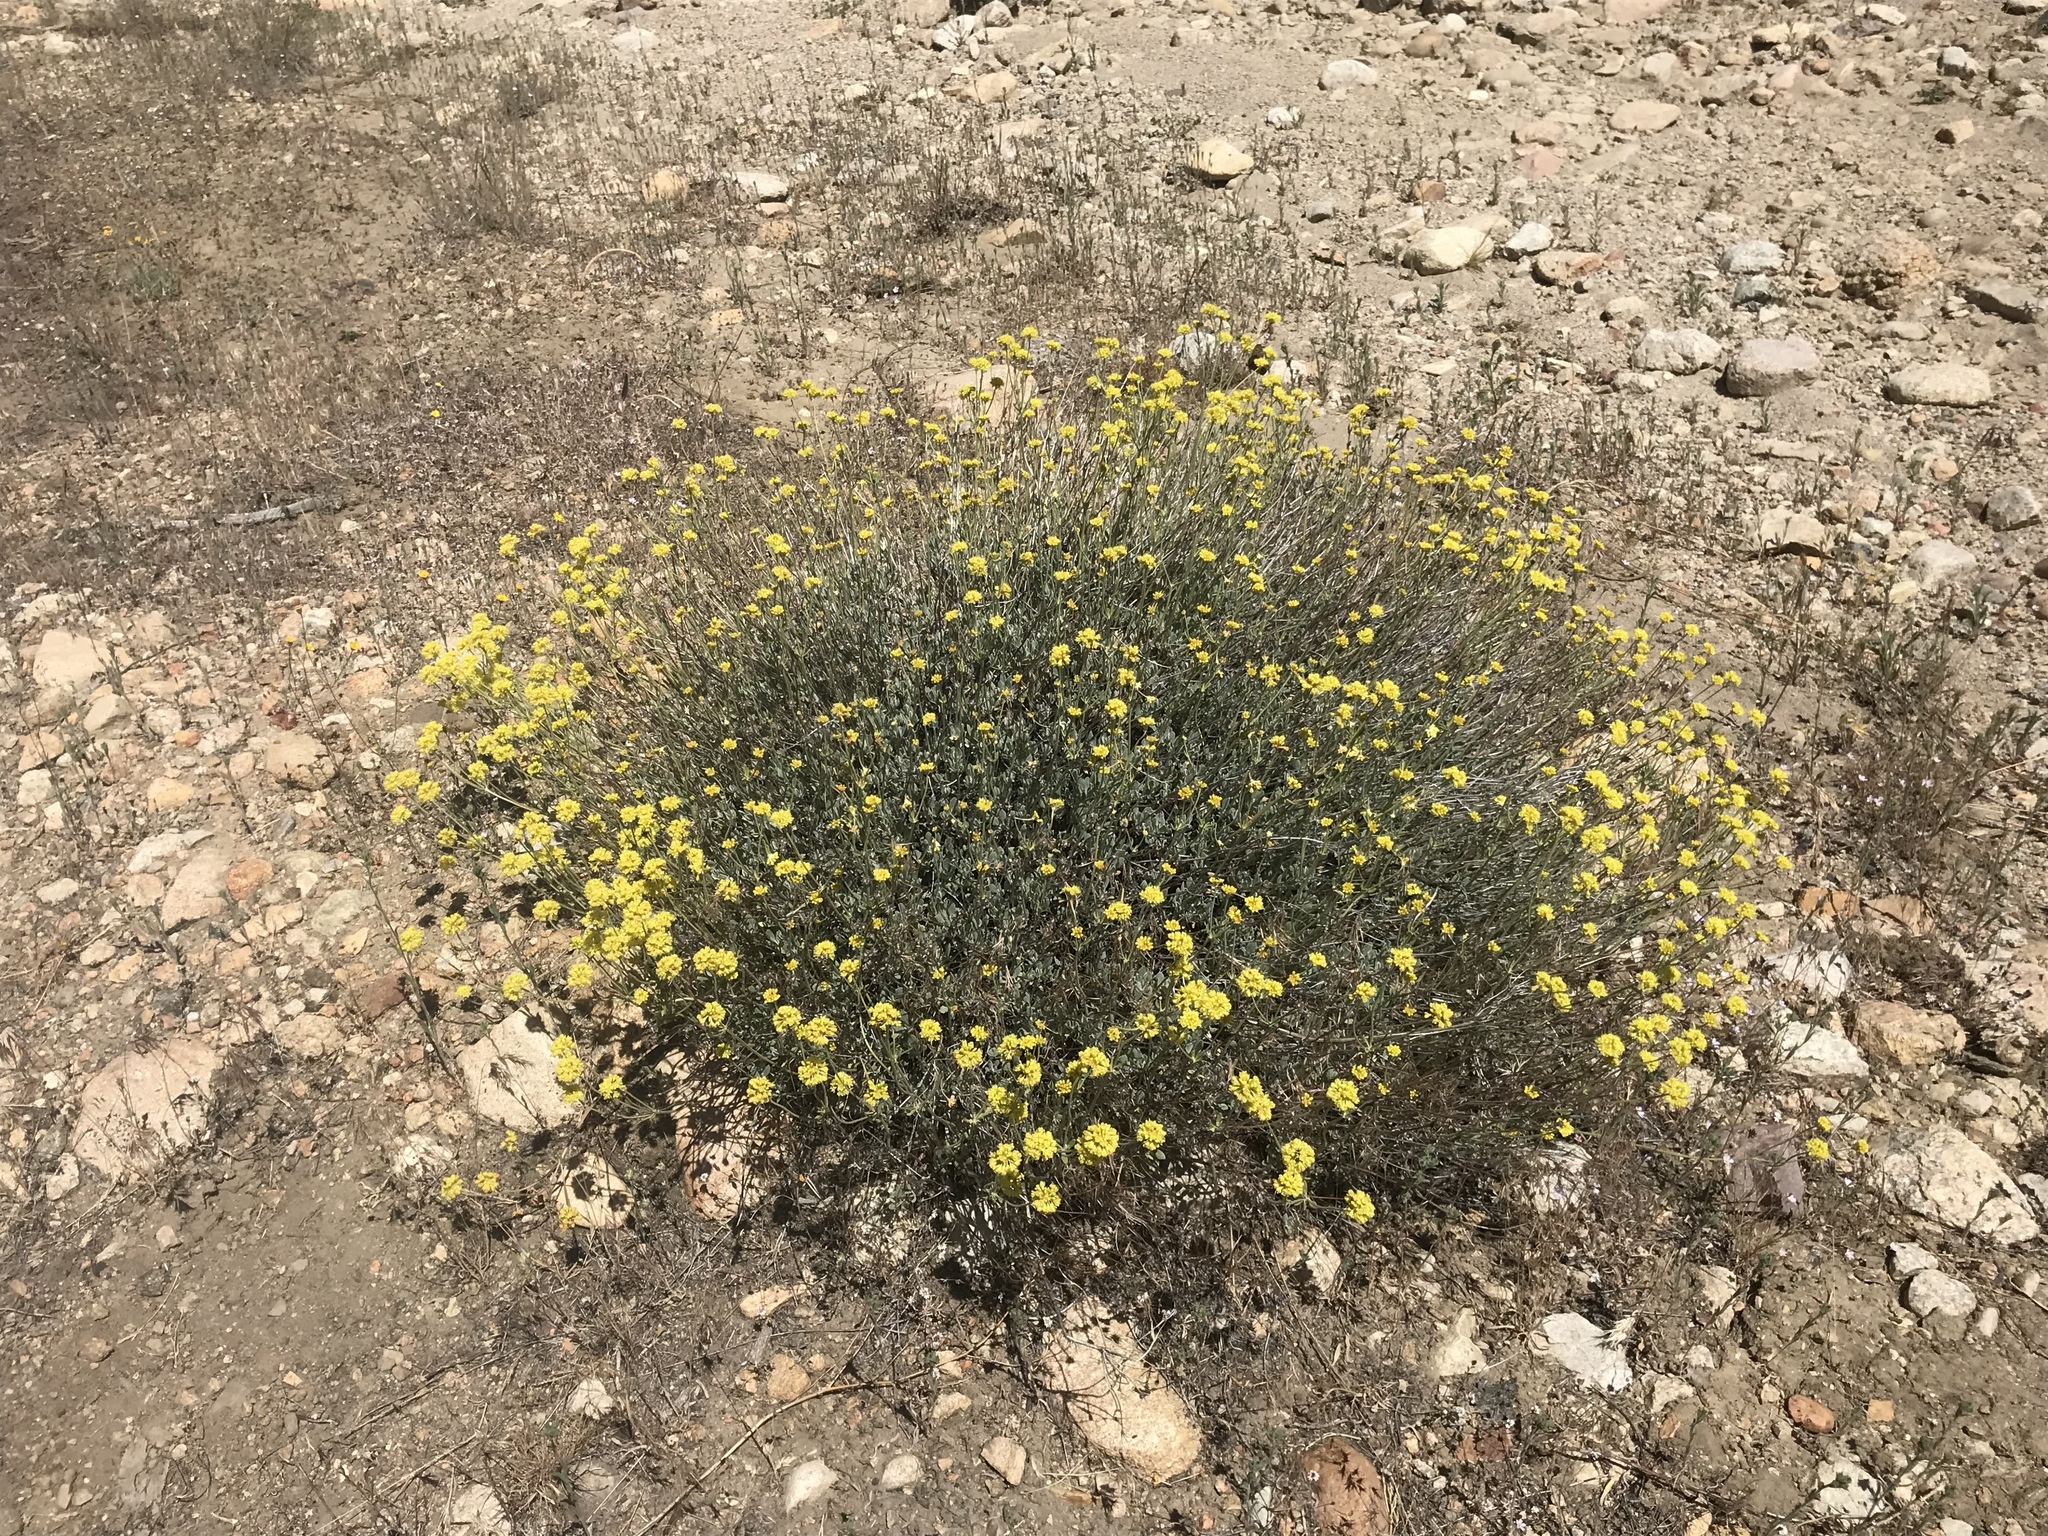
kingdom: Plantae
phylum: Tracheophyta
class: Magnoliopsida
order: Caryophyllales
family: Polygonaceae
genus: Eriogonum
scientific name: Eriogonum umbellatum
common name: Sulfur-buckwheat
